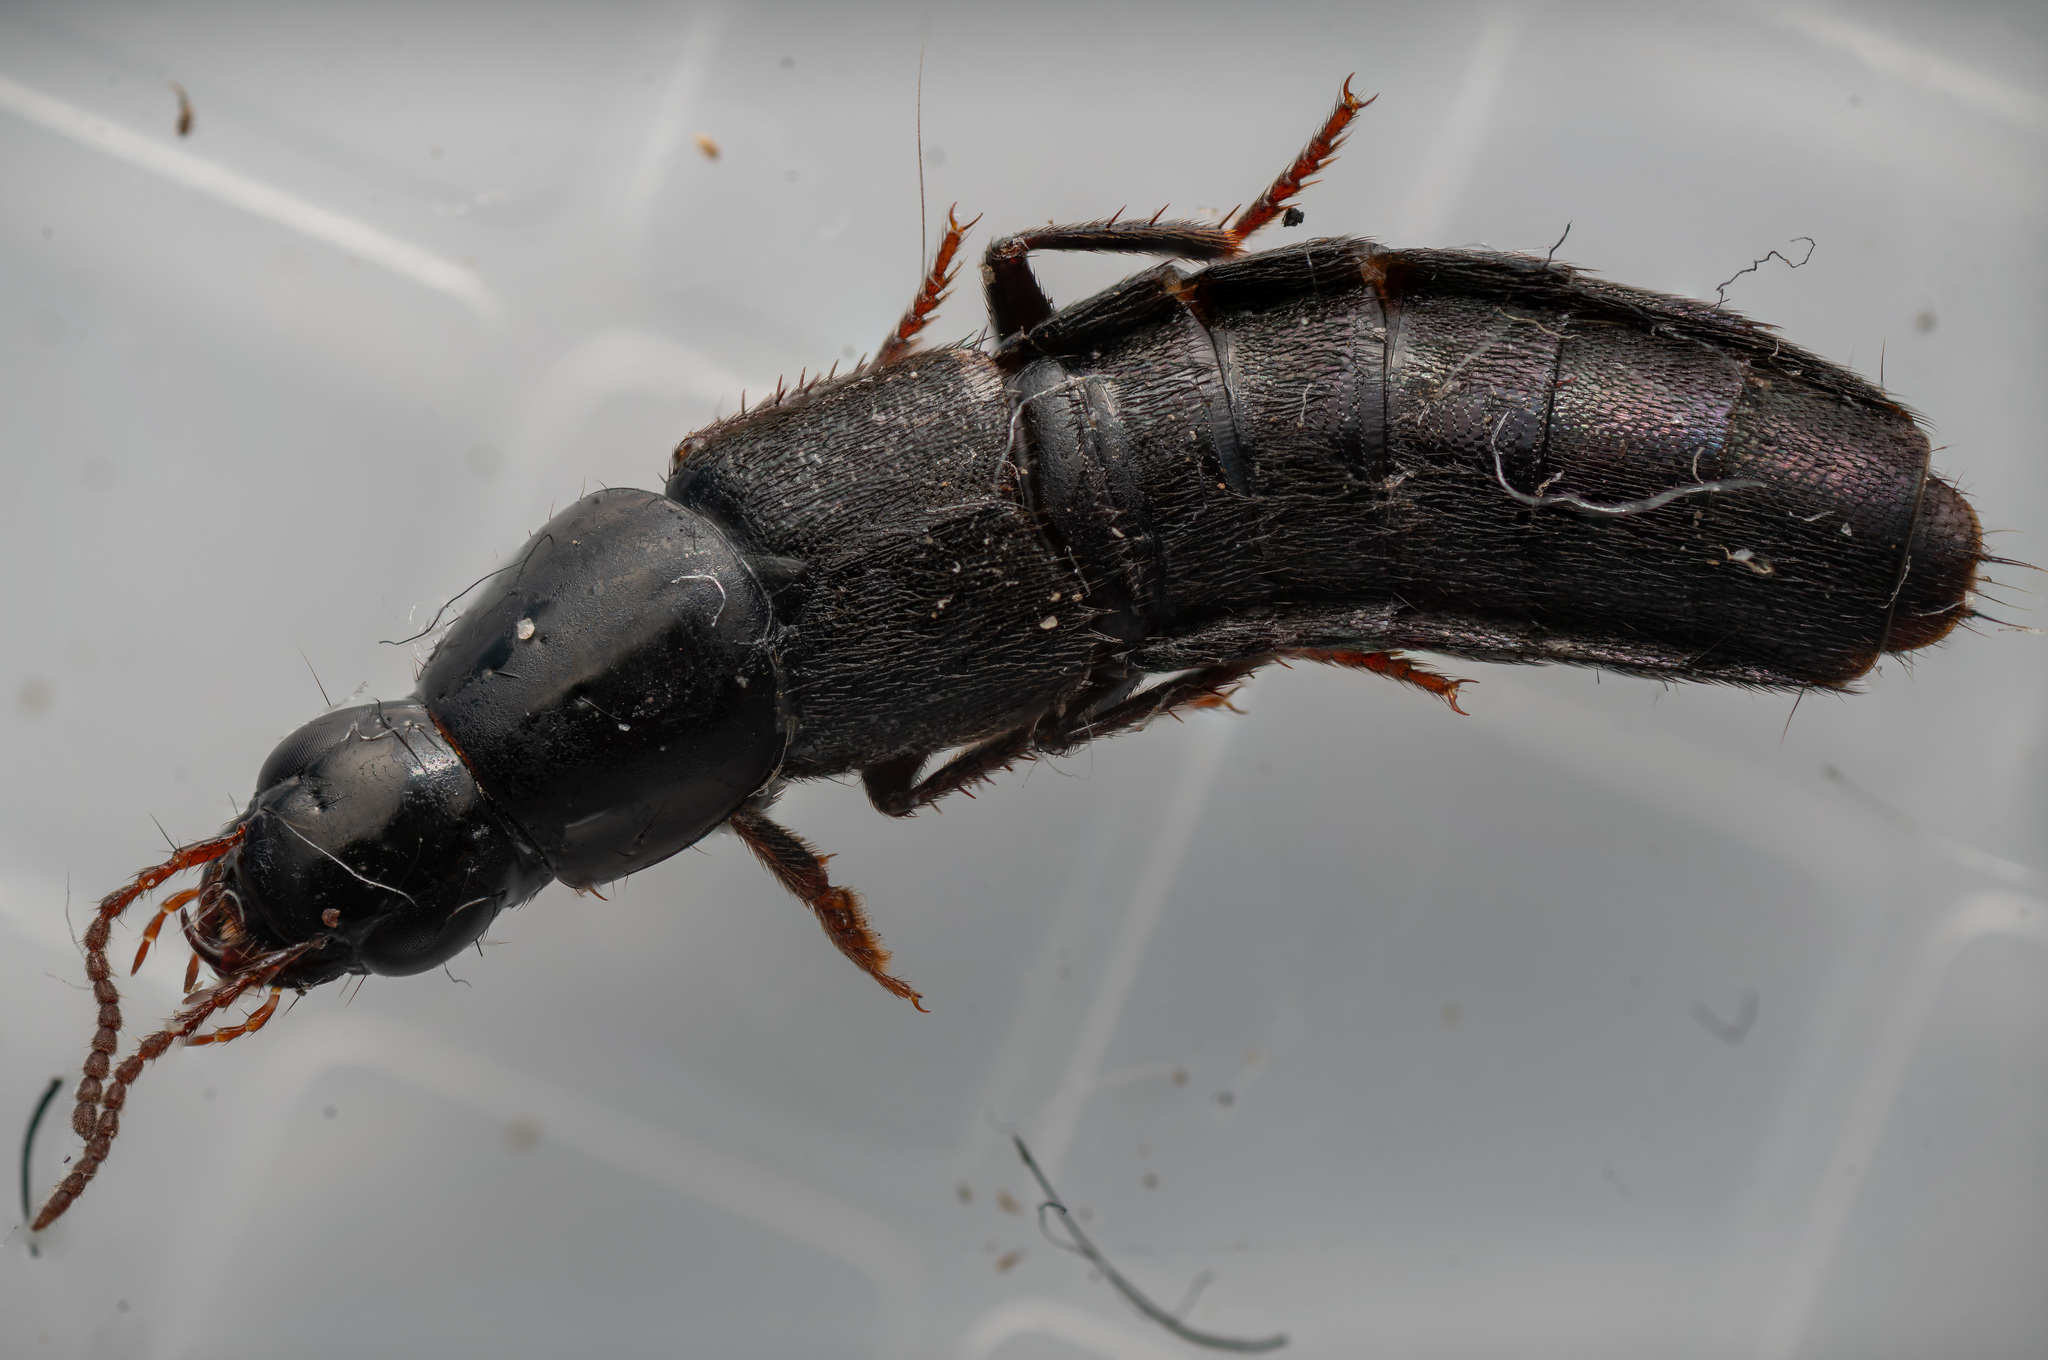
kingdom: Animalia
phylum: Arthropoda
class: Insecta
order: Coleoptera
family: Staphylinidae
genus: Quedius
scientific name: Quedius curtipennis
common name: Large rove beetle
